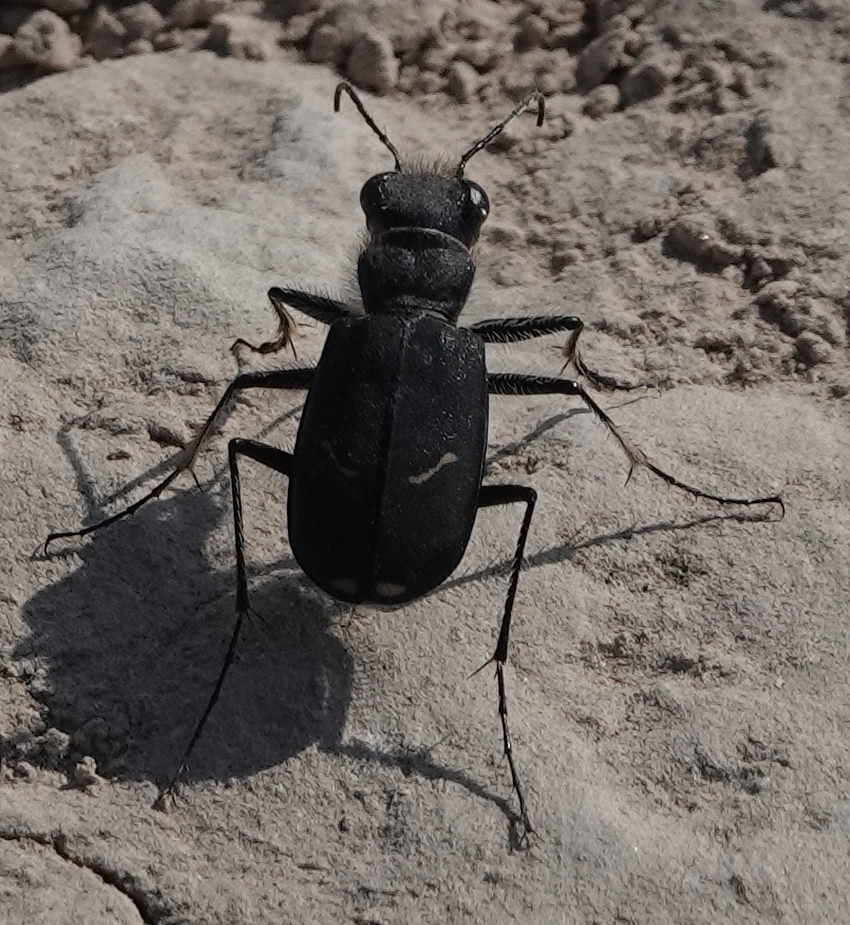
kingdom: Animalia
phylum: Arthropoda
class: Insecta
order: Coleoptera
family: Carabidae
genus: Cicindela
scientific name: Cicindela purpurea
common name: Cow path tiger beetle
